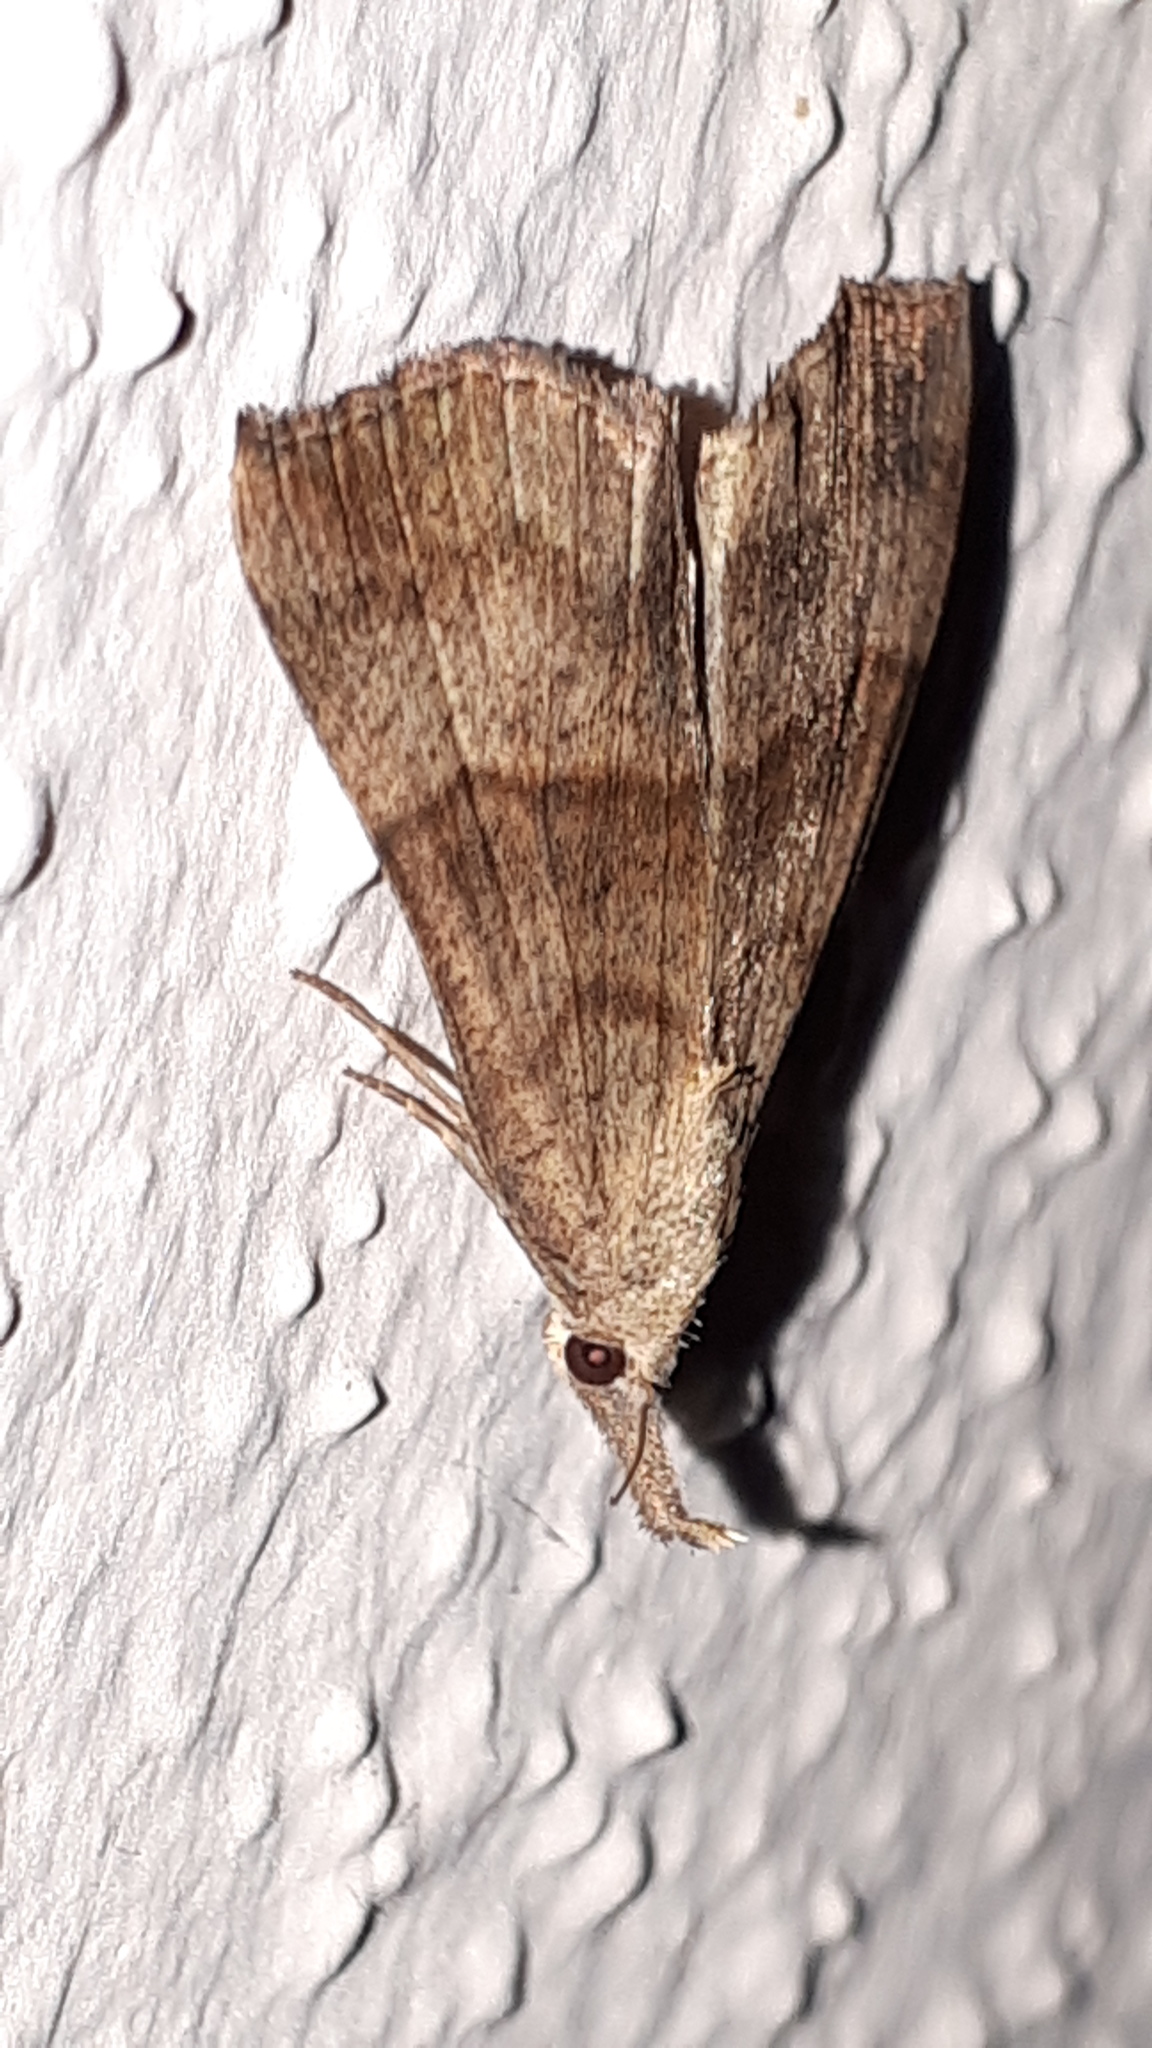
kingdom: Animalia
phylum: Arthropoda
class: Insecta
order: Lepidoptera
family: Erebidae
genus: Hypena
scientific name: Hypena proboscidalis
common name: Snout
